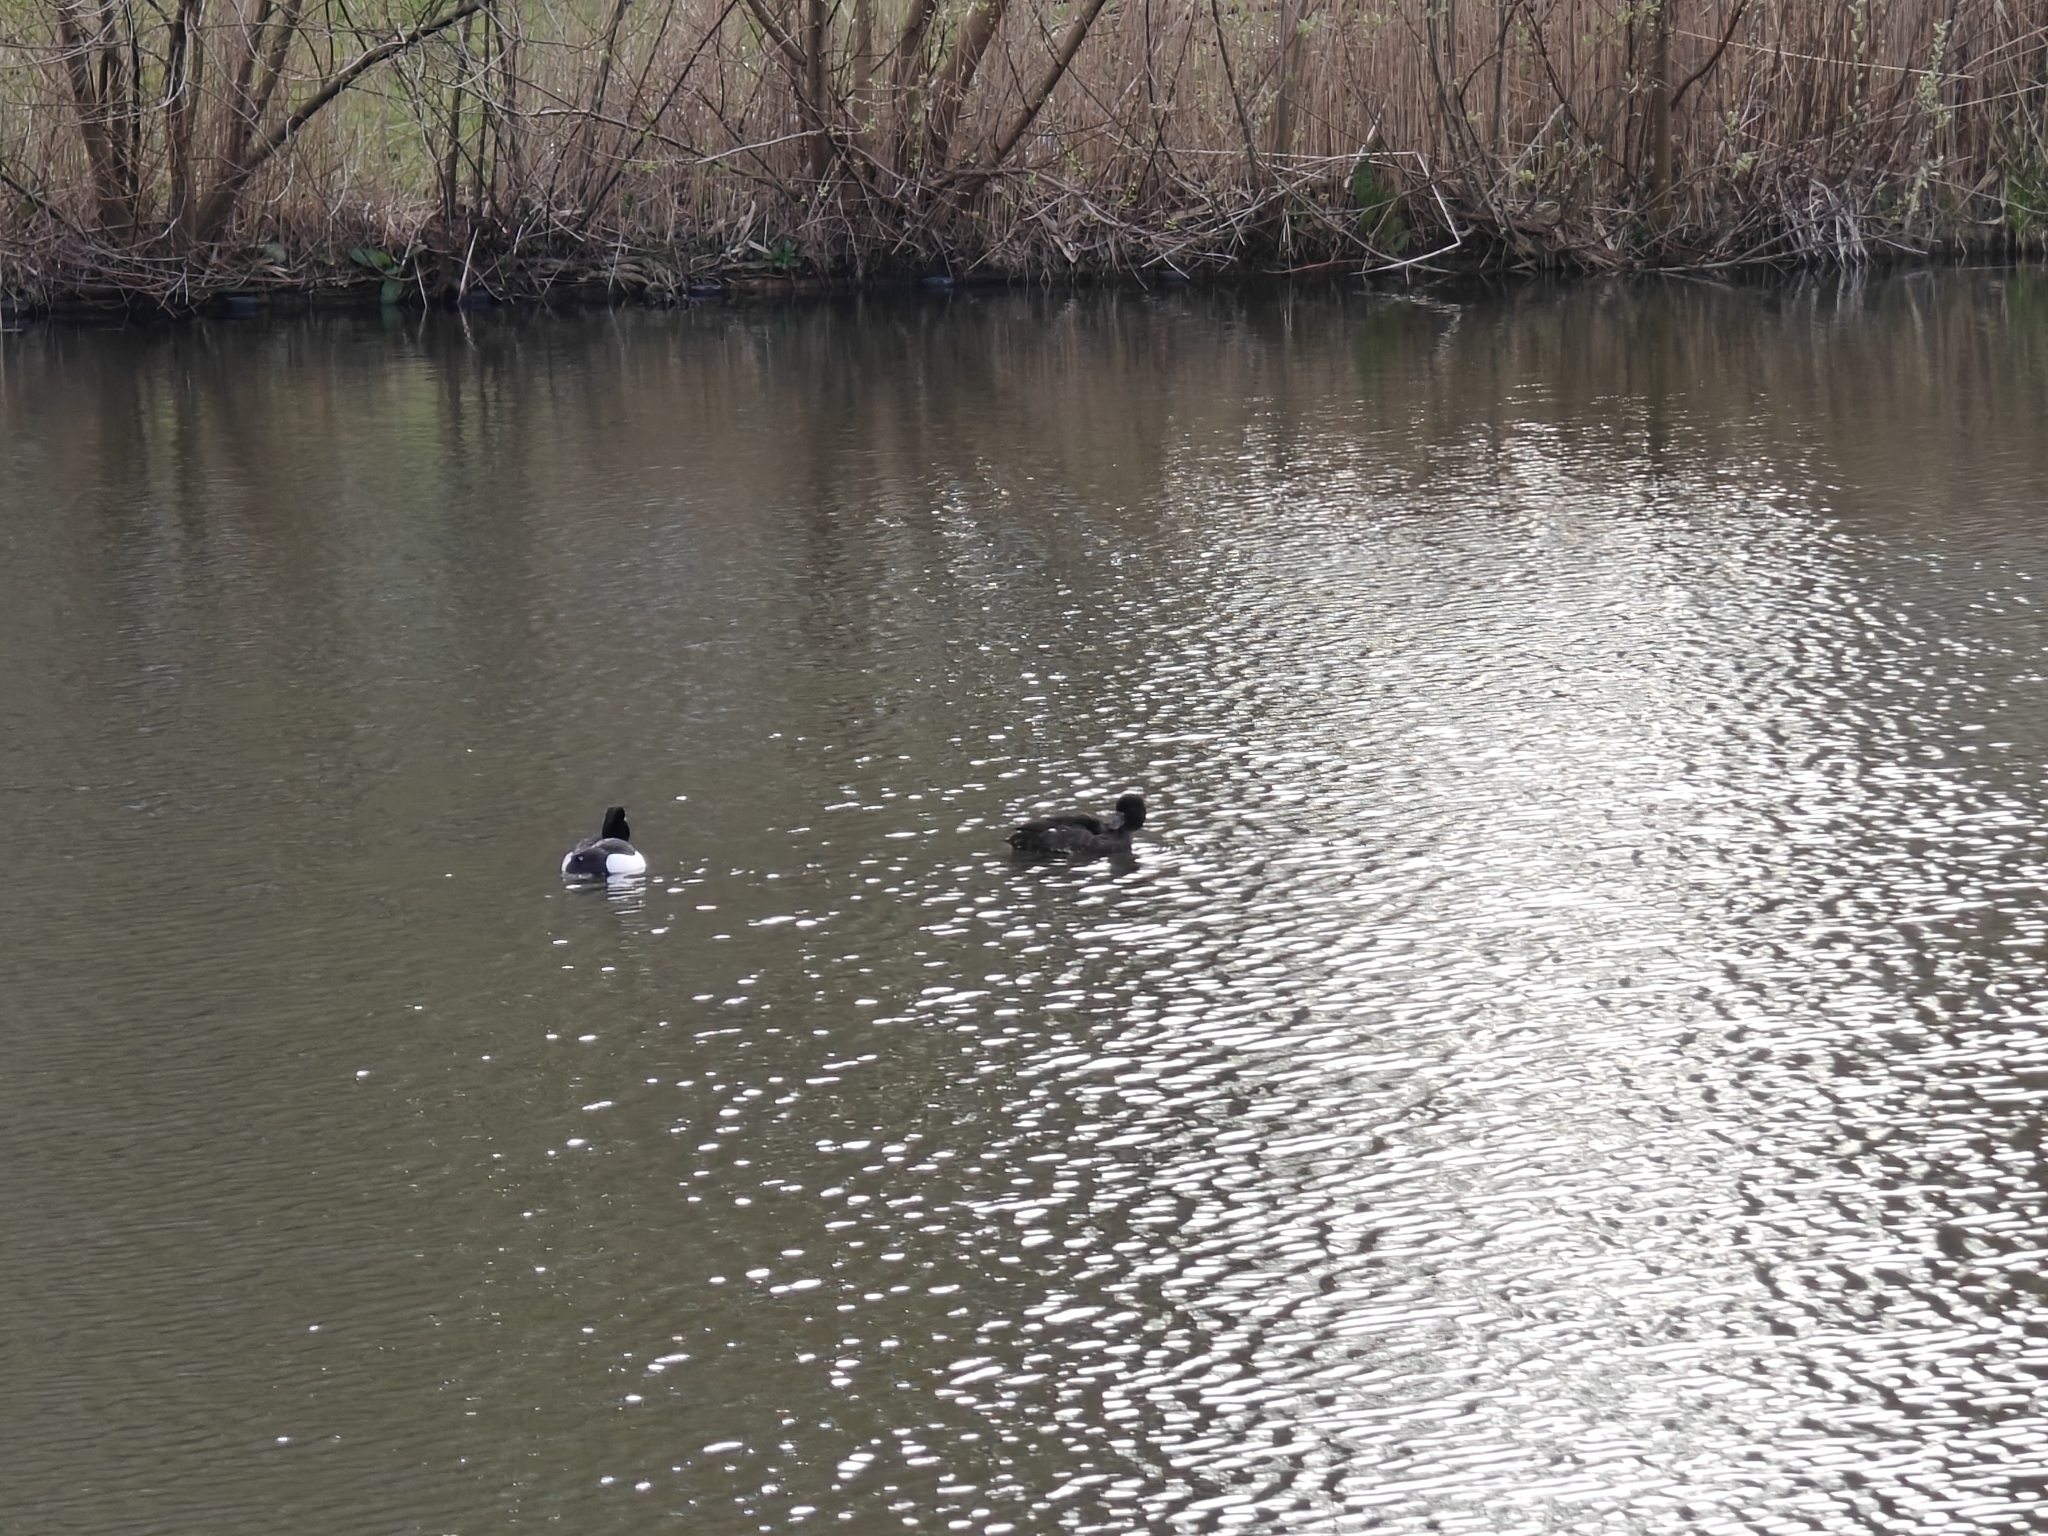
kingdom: Animalia
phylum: Chordata
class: Aves
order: Anseriformes
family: Anatidae
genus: Aythya
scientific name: Aythya fuligula
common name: Tufted duck
